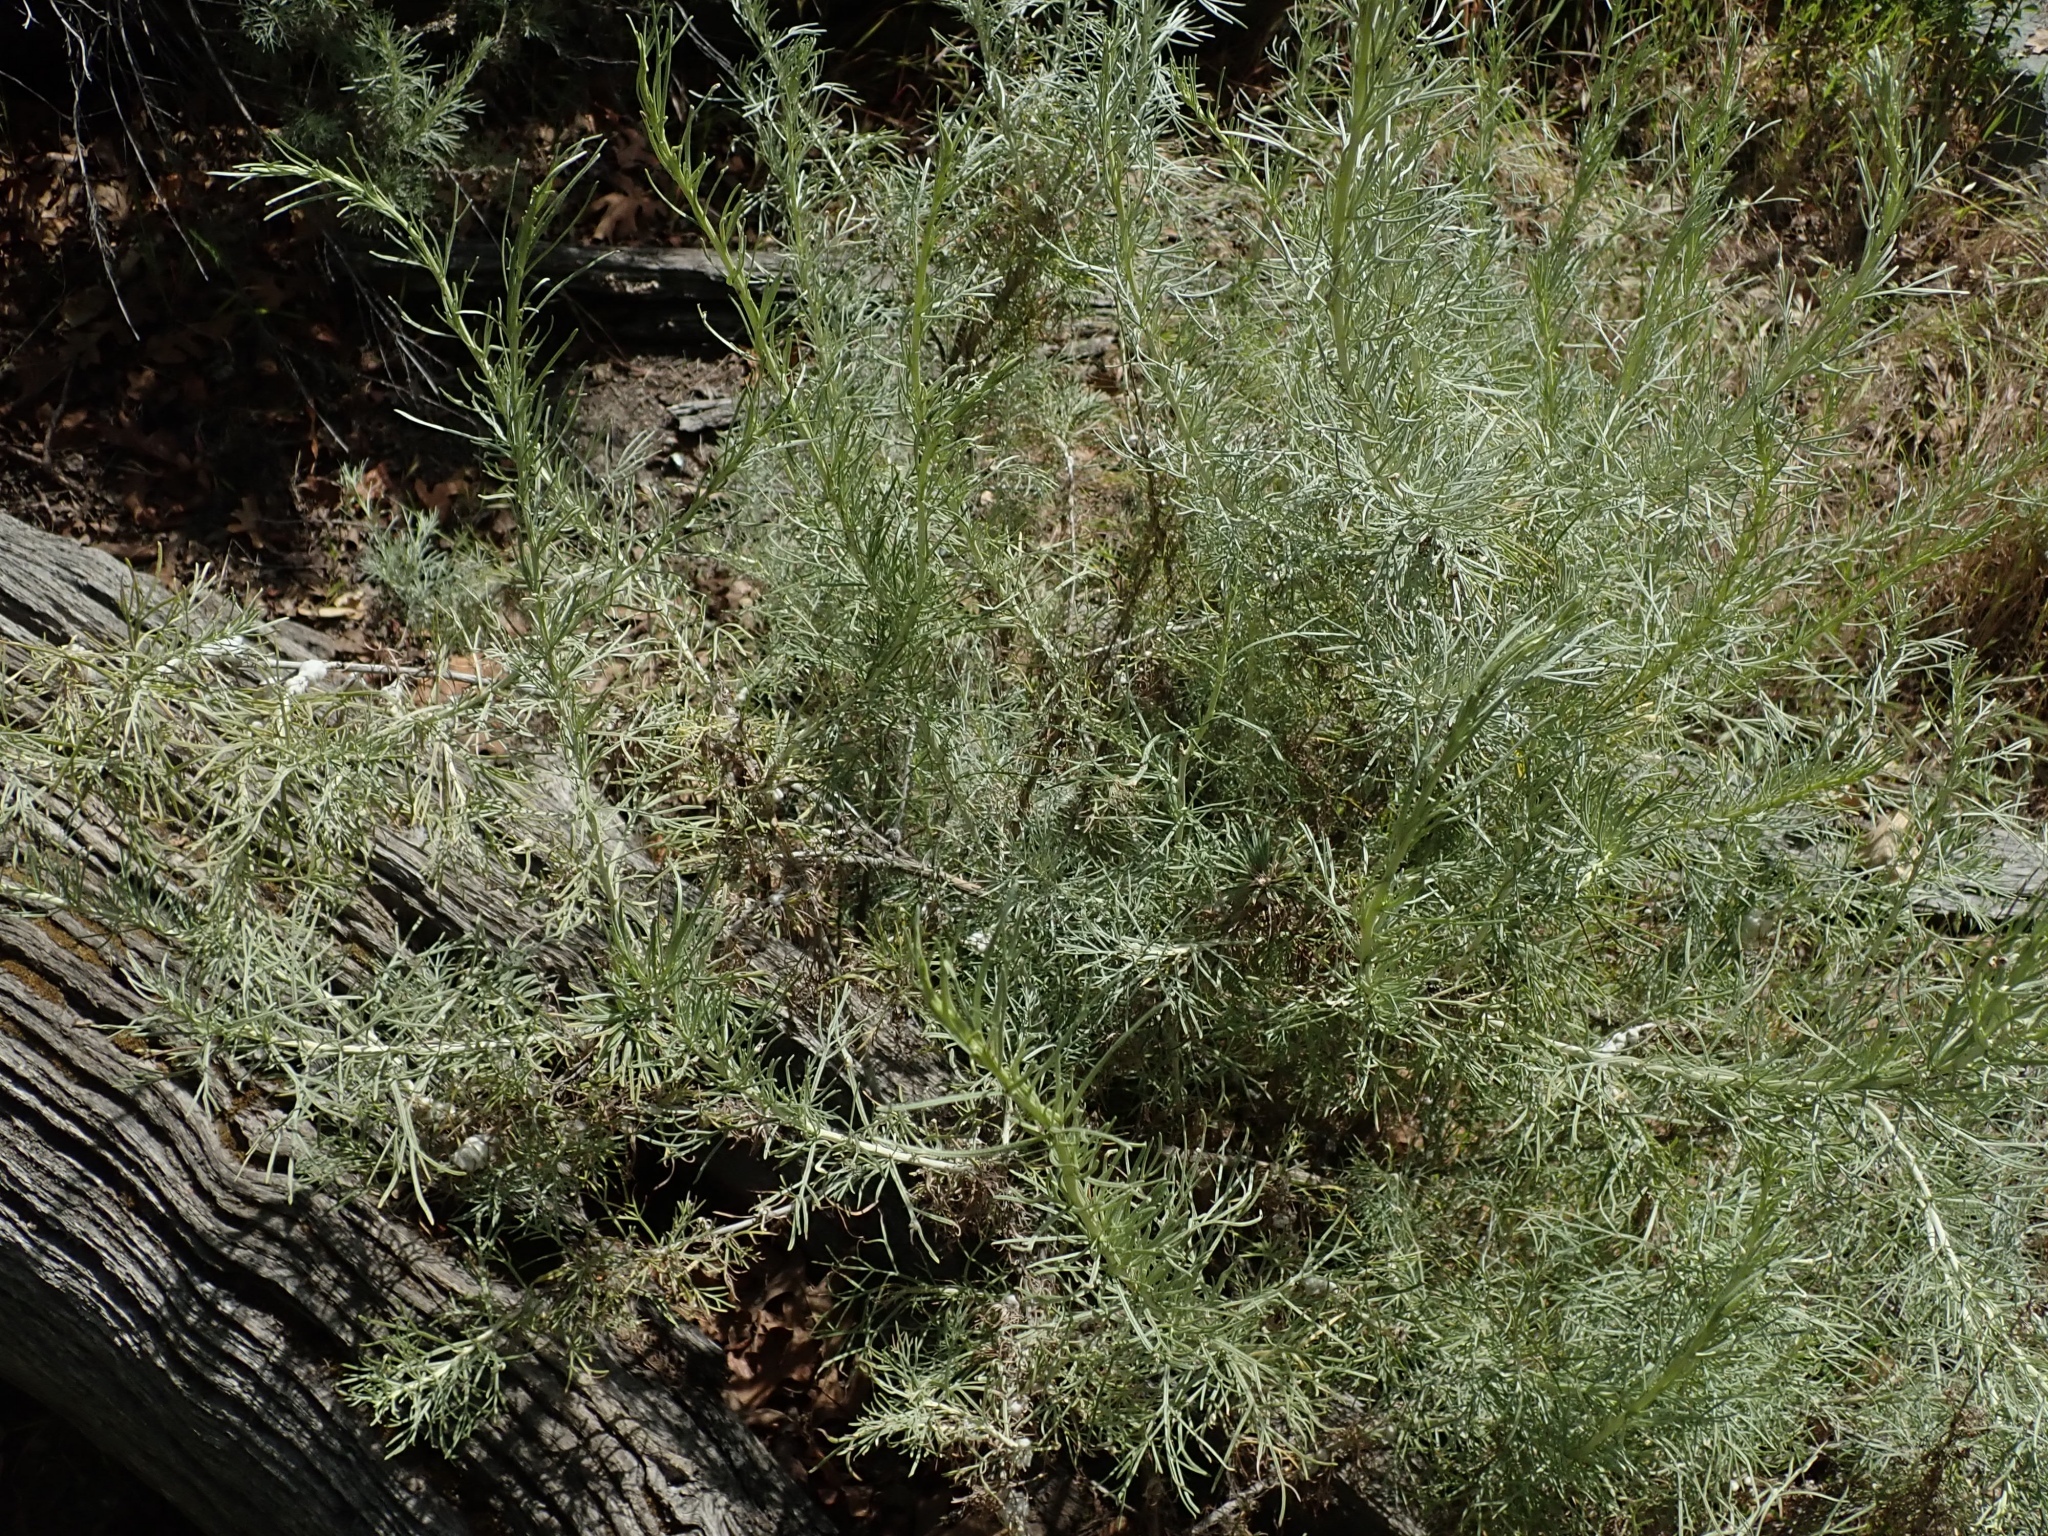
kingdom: Animalia
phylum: Arthropoda
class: Insecta
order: Diptera
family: Cecidomyiidae
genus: Rhopalomyia
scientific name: Rhopalomyia floccosa
